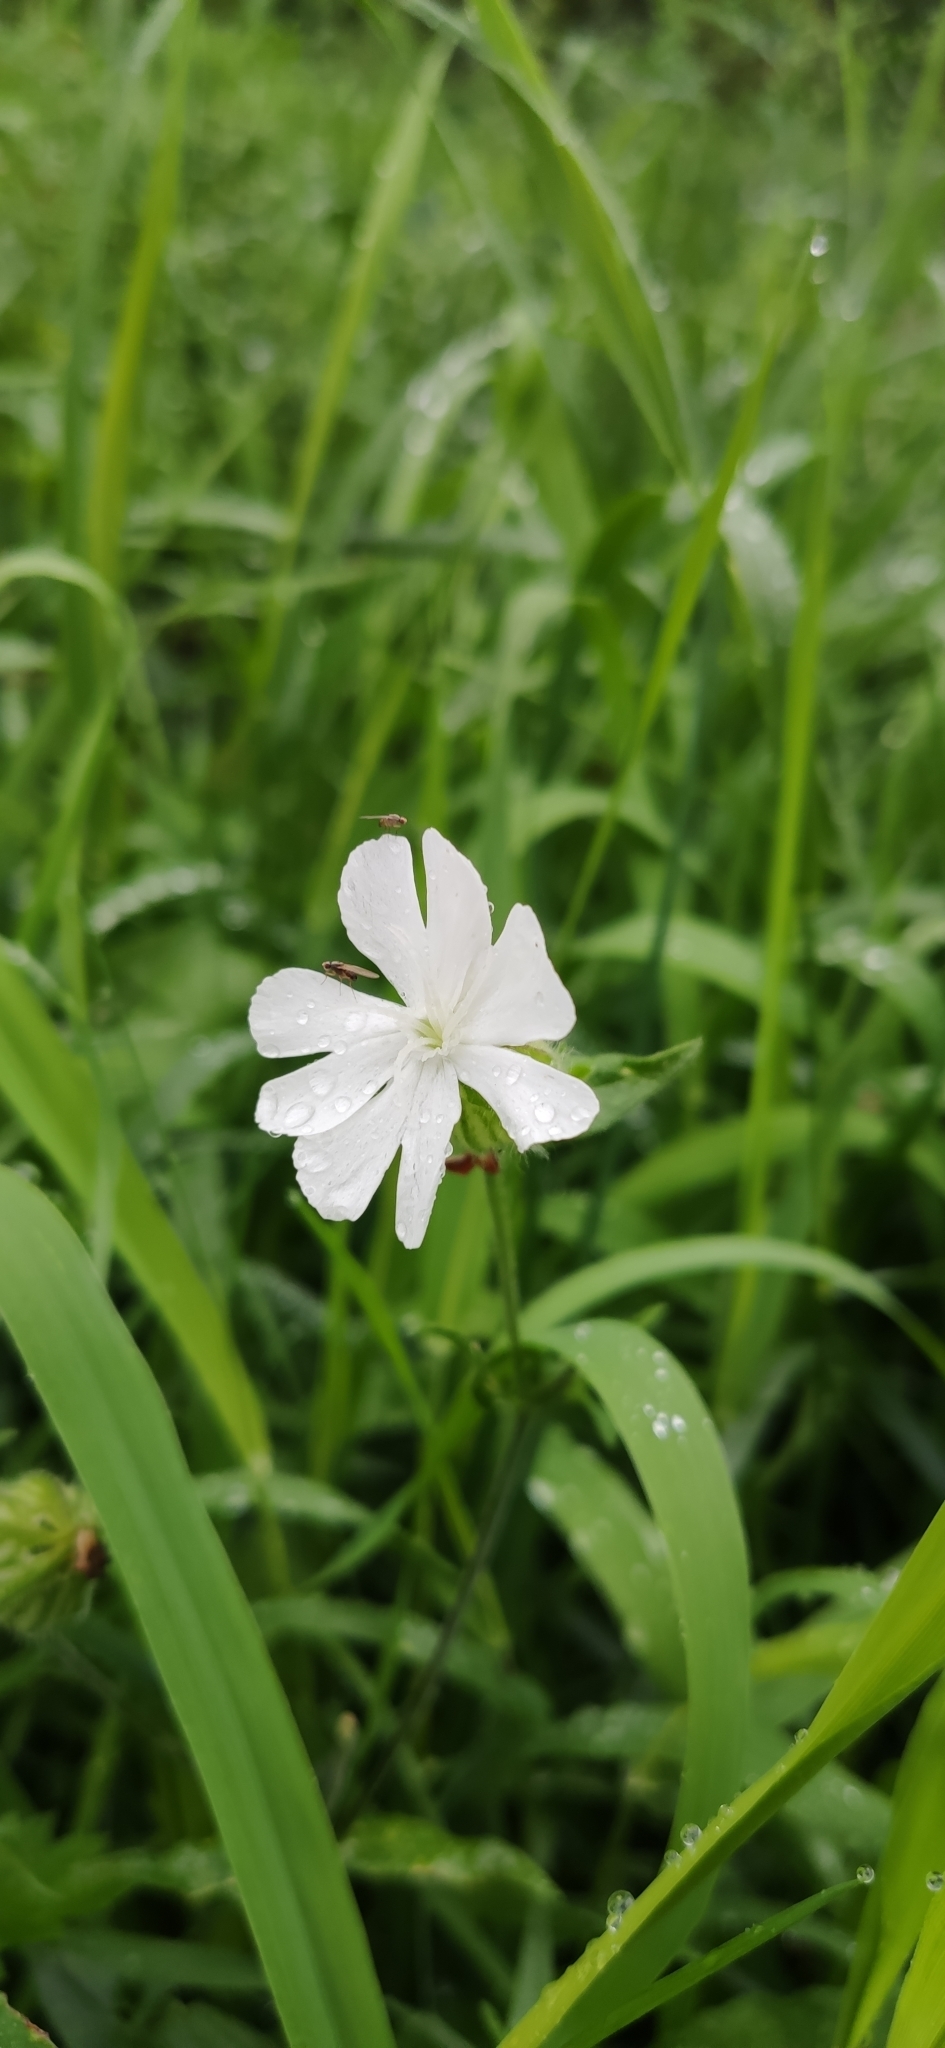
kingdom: Plantae
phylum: Tracheophyta
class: Magnoliopsida
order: Caryophyllales
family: Caryophyllaceae
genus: Silene
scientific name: Silene latifolia
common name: White campion
